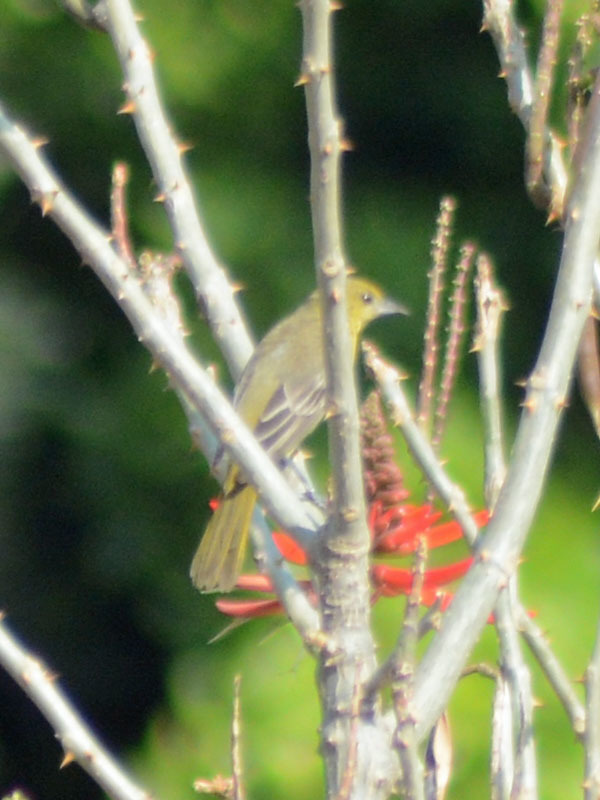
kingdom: Animalia
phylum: Chordata
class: Aves
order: Passeriformes
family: Icteridae
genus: Icterus
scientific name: Icterus spurius
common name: Orchard oriole
